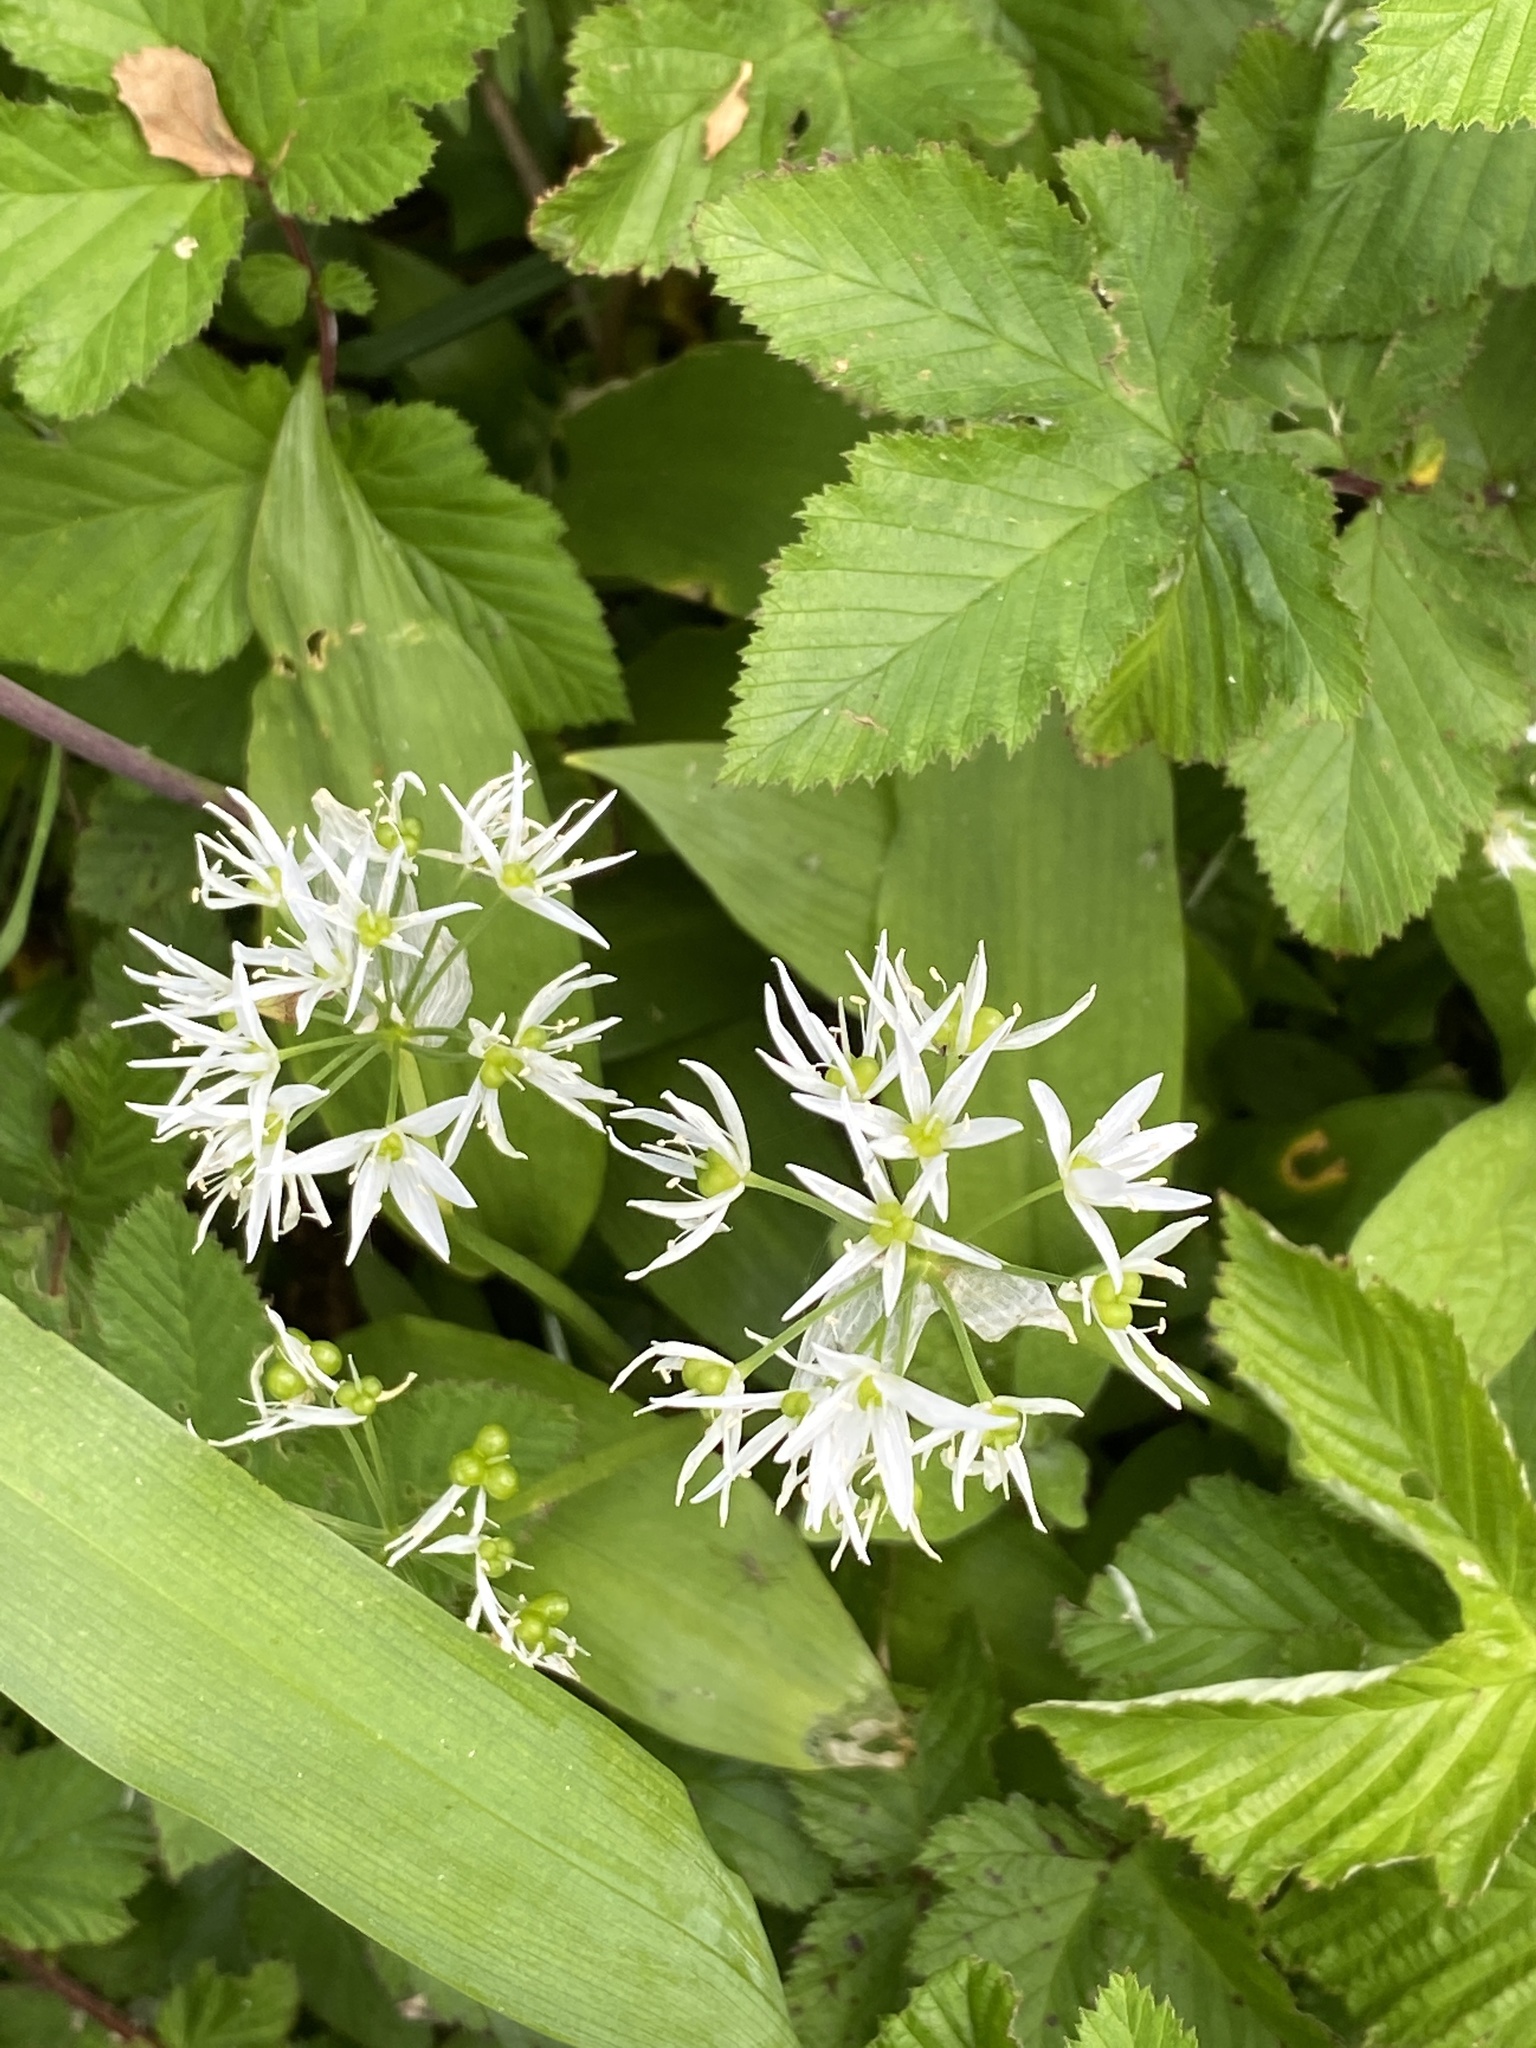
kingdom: Plantae
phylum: Tracheophyta
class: Liliopsida
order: Asparagales
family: Amaryllidaceae
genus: Allium
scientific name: Allium ursinum
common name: Ramsons
